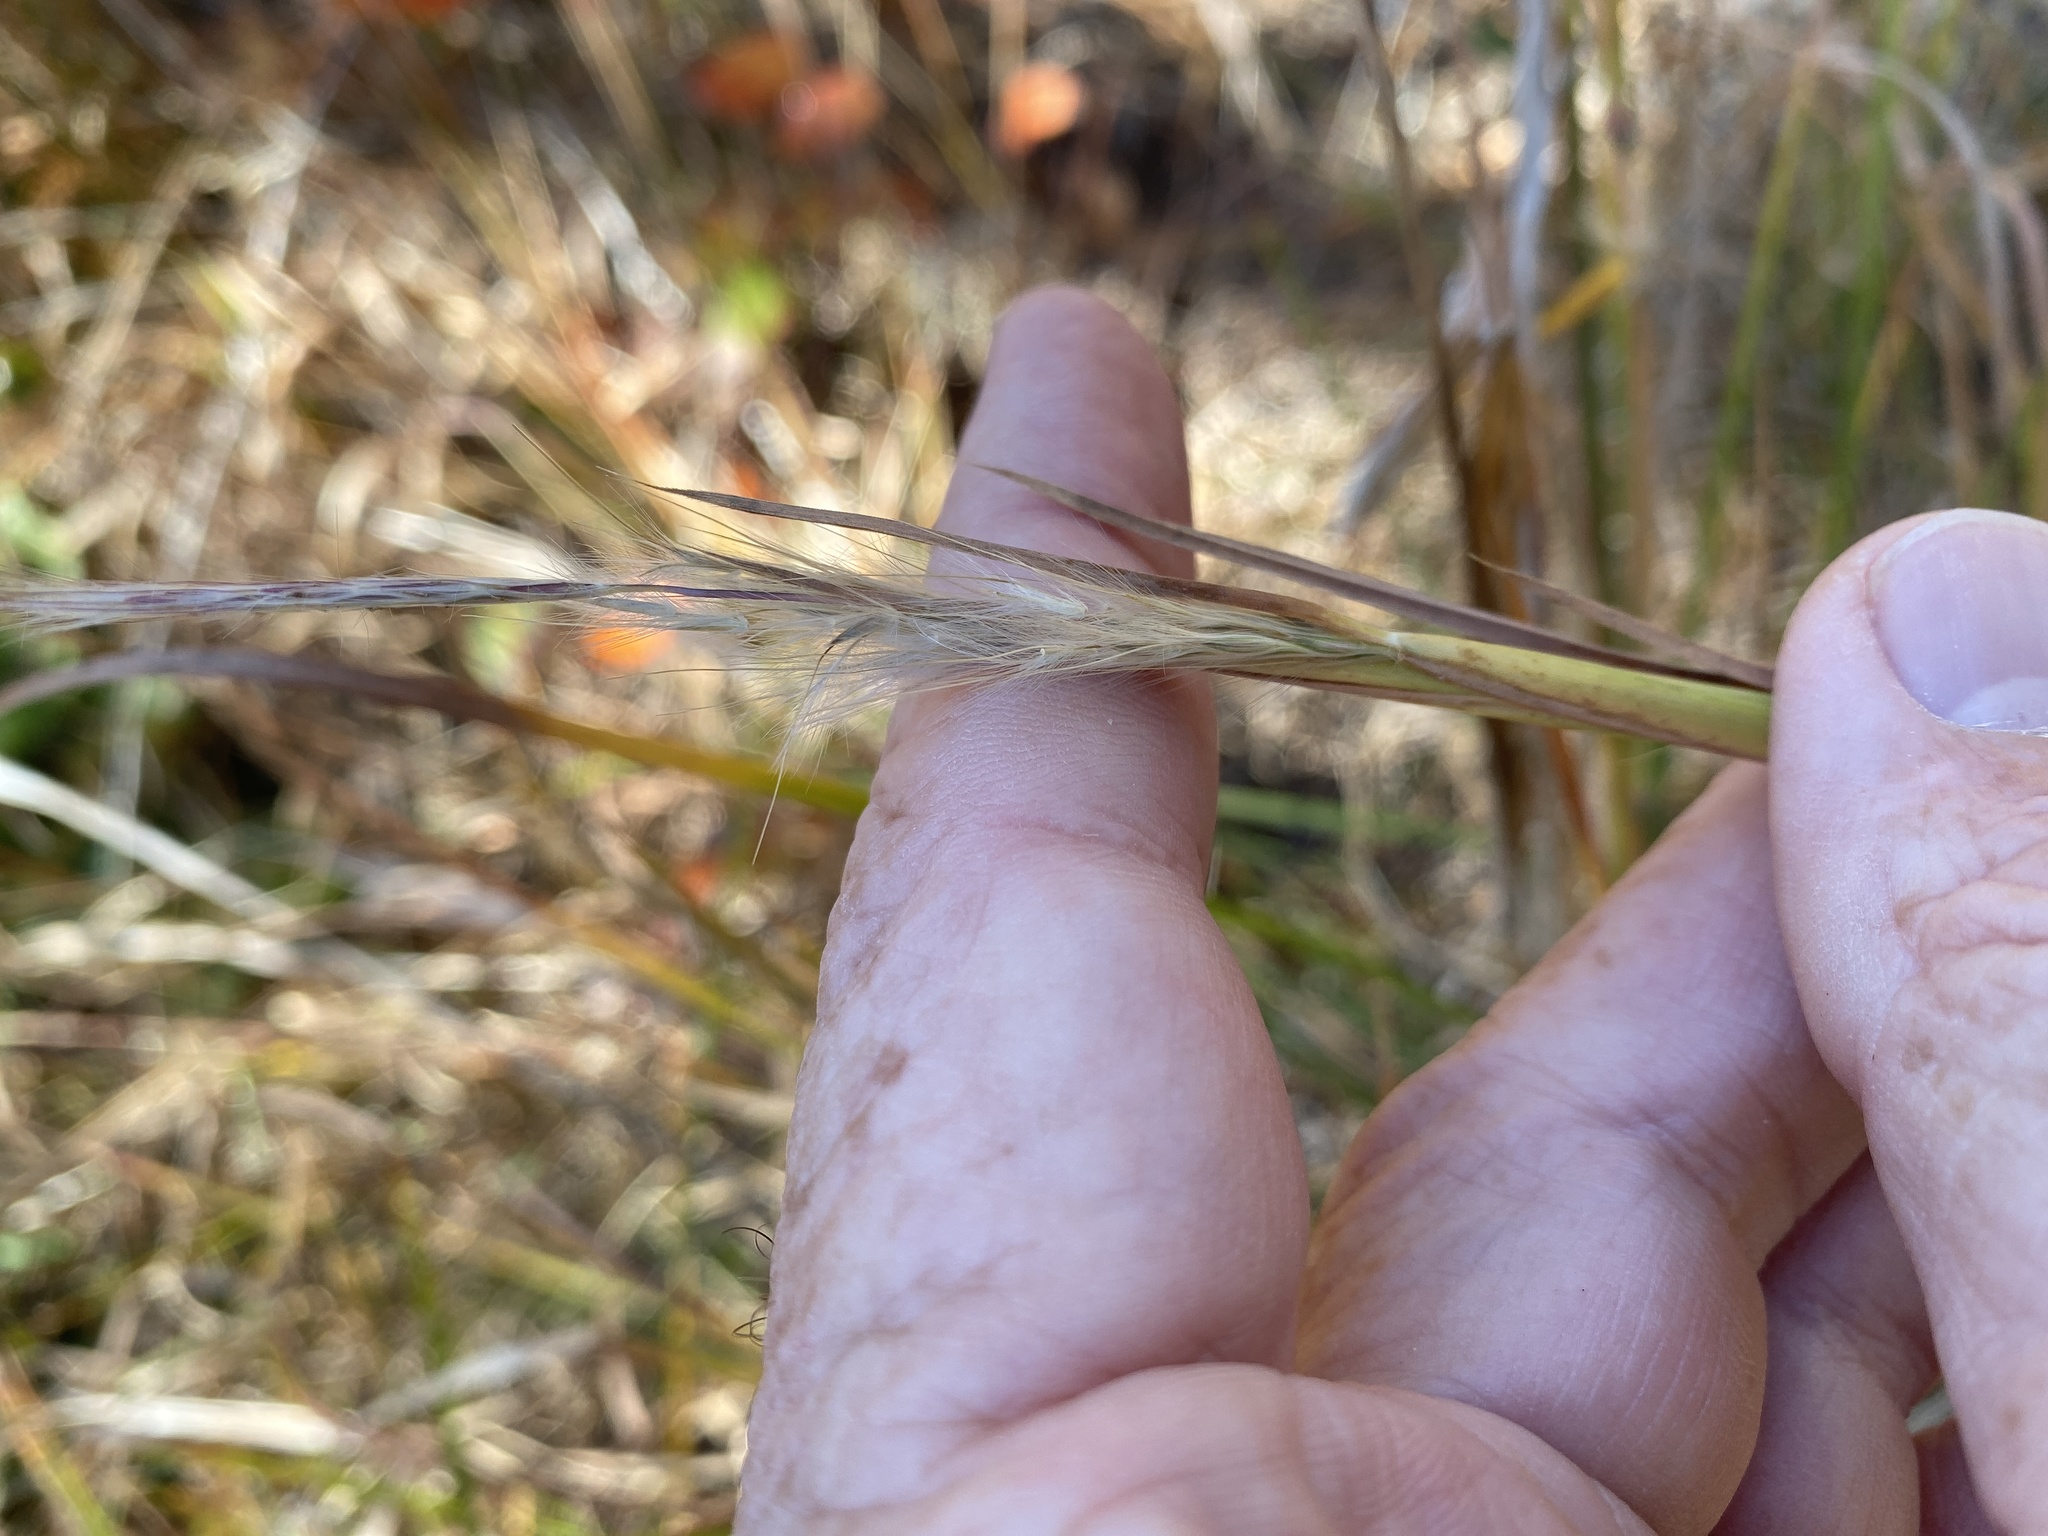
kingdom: Plantae
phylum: Tracheophyta
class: Liliopsida
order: Poales
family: Poaceae
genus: Andropogon
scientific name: Andropogon gyrans
